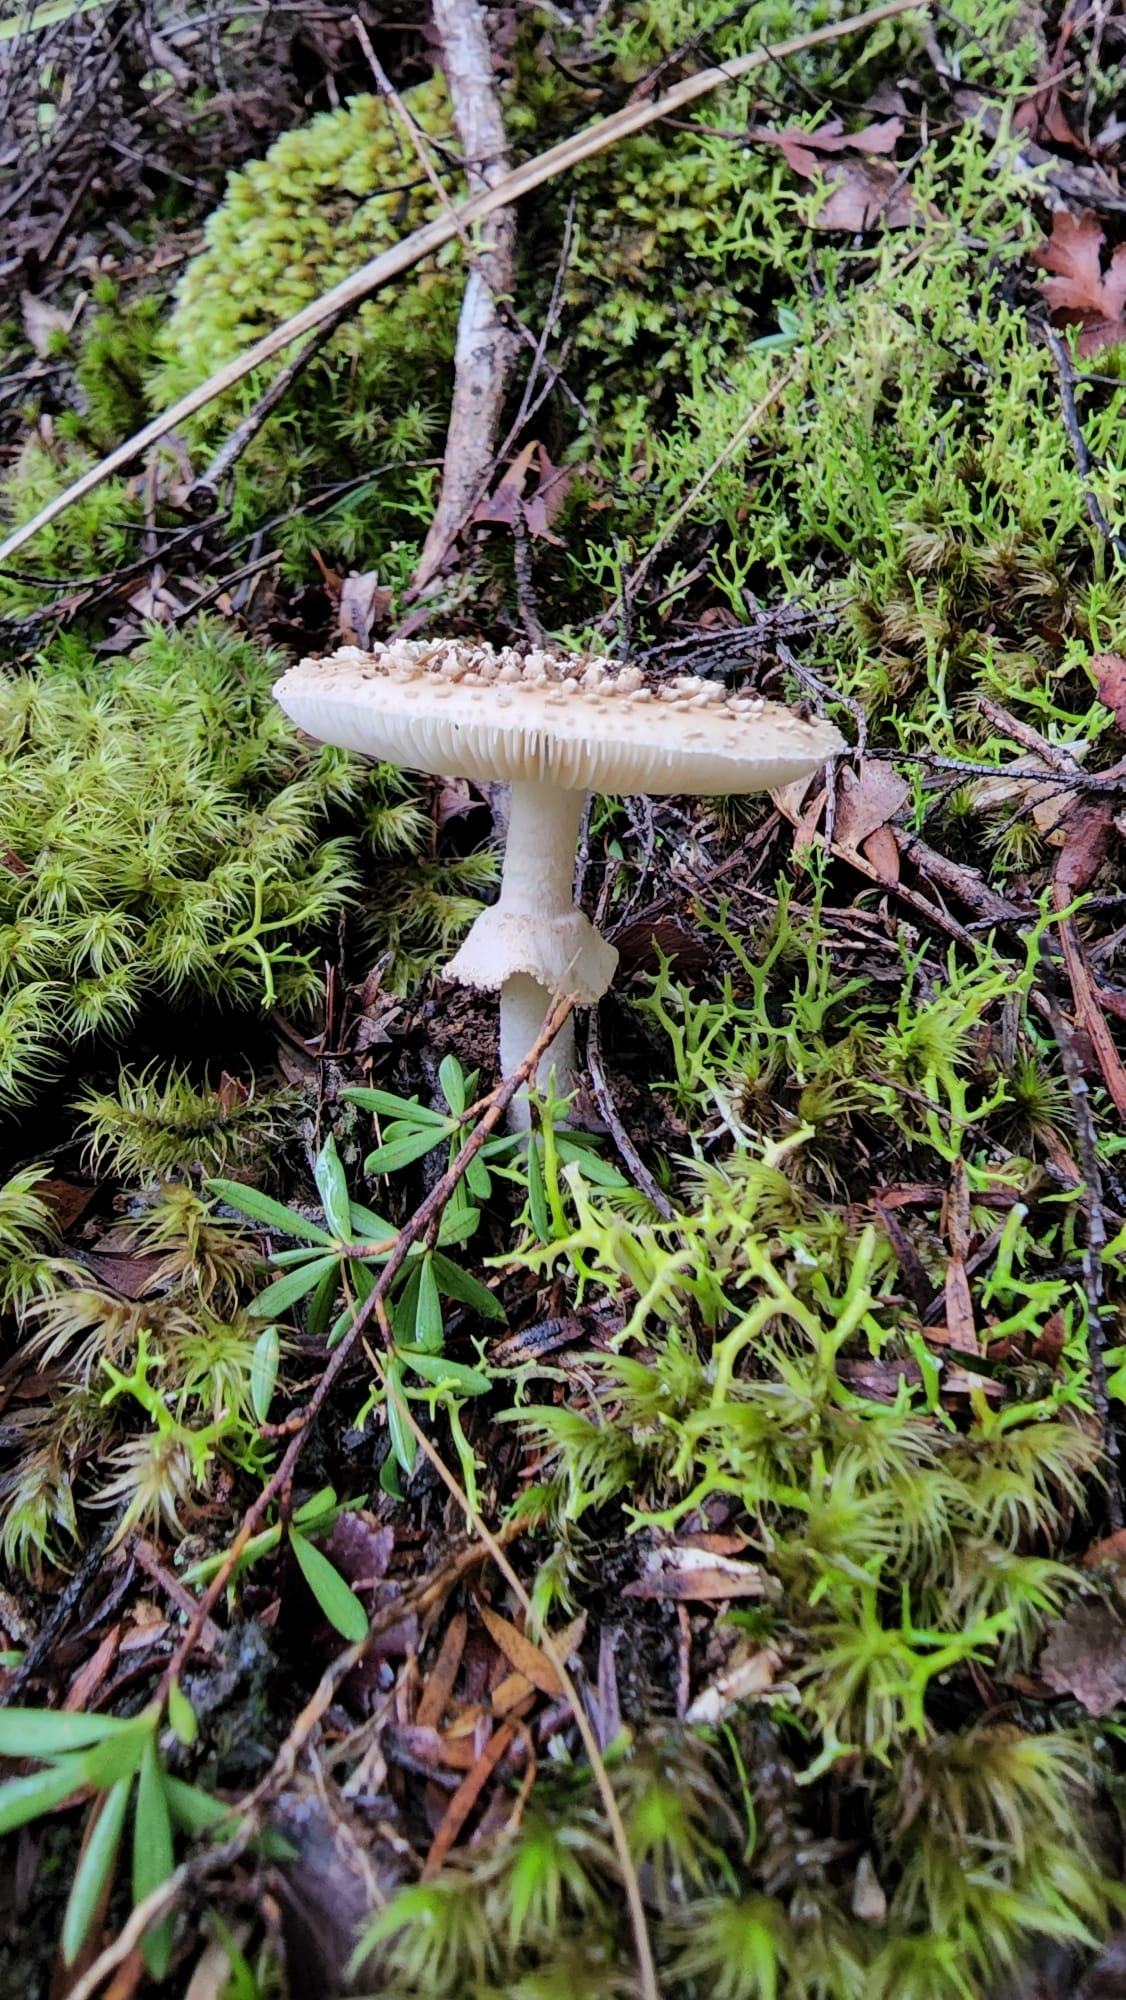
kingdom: Fungi
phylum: Basidiomycota
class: Agaricomycetes
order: Agaricales
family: Amanitaceae
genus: Amanita
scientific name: Amanita australis
